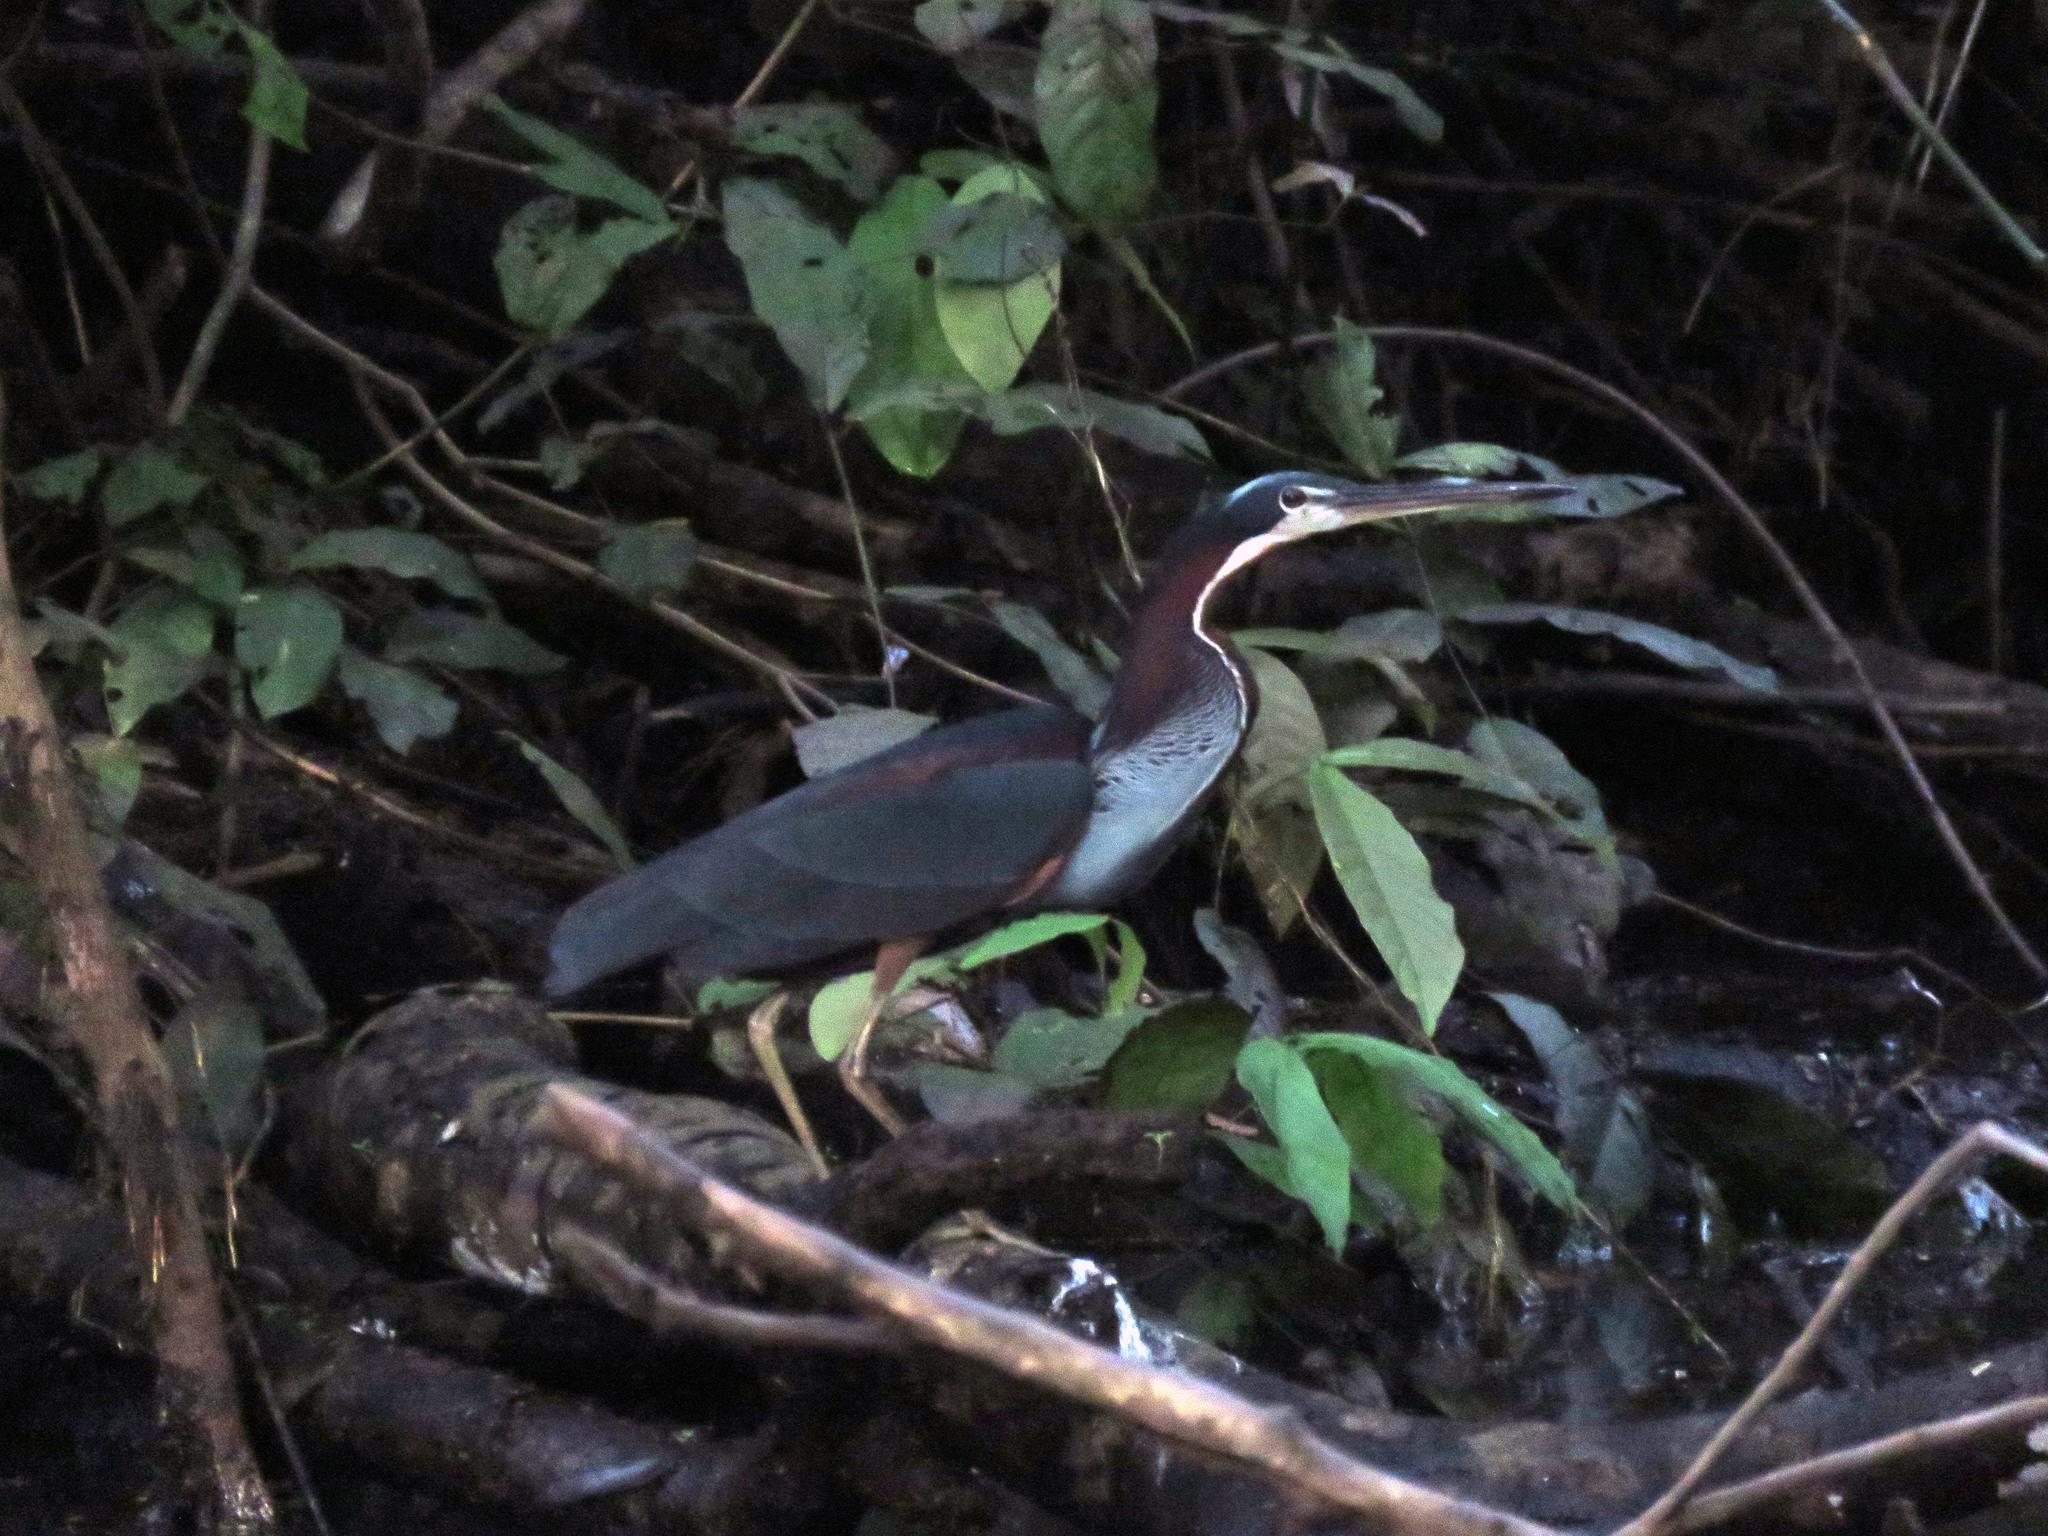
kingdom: Animalia
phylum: Chordata
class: Aves
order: Pelecaniformes
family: Ardeidae
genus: Agamia
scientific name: Agamia agami
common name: Agami heron
